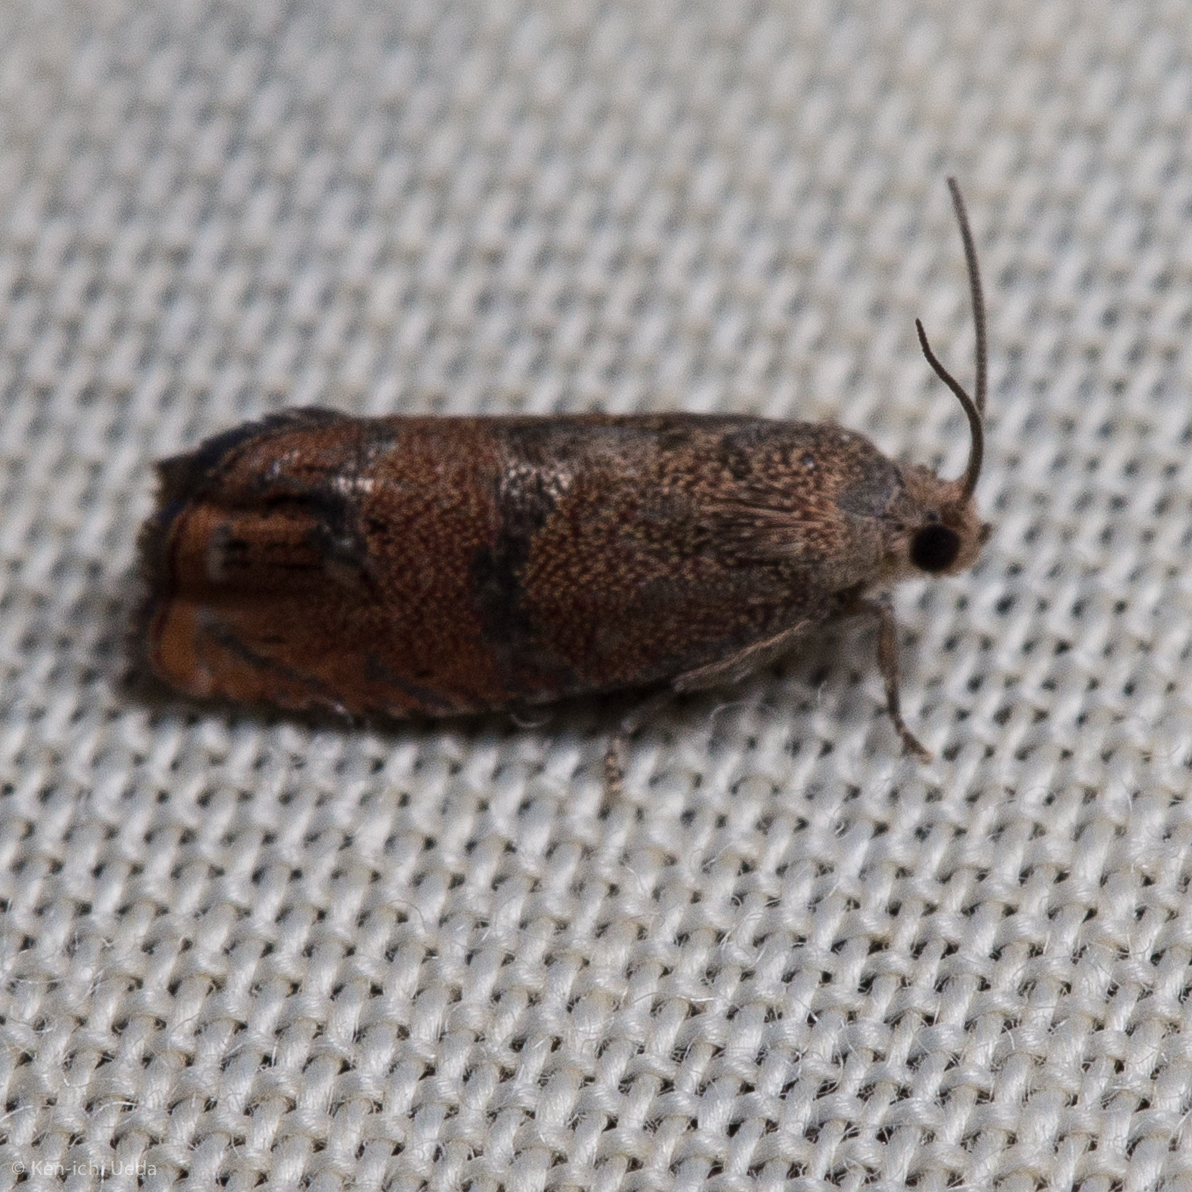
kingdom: Animalia
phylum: Arthropoda
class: Insecta
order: Lepidoptera
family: Tortricidae
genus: Cydia
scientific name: Cydia latiferreana
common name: Filbertworm moth
